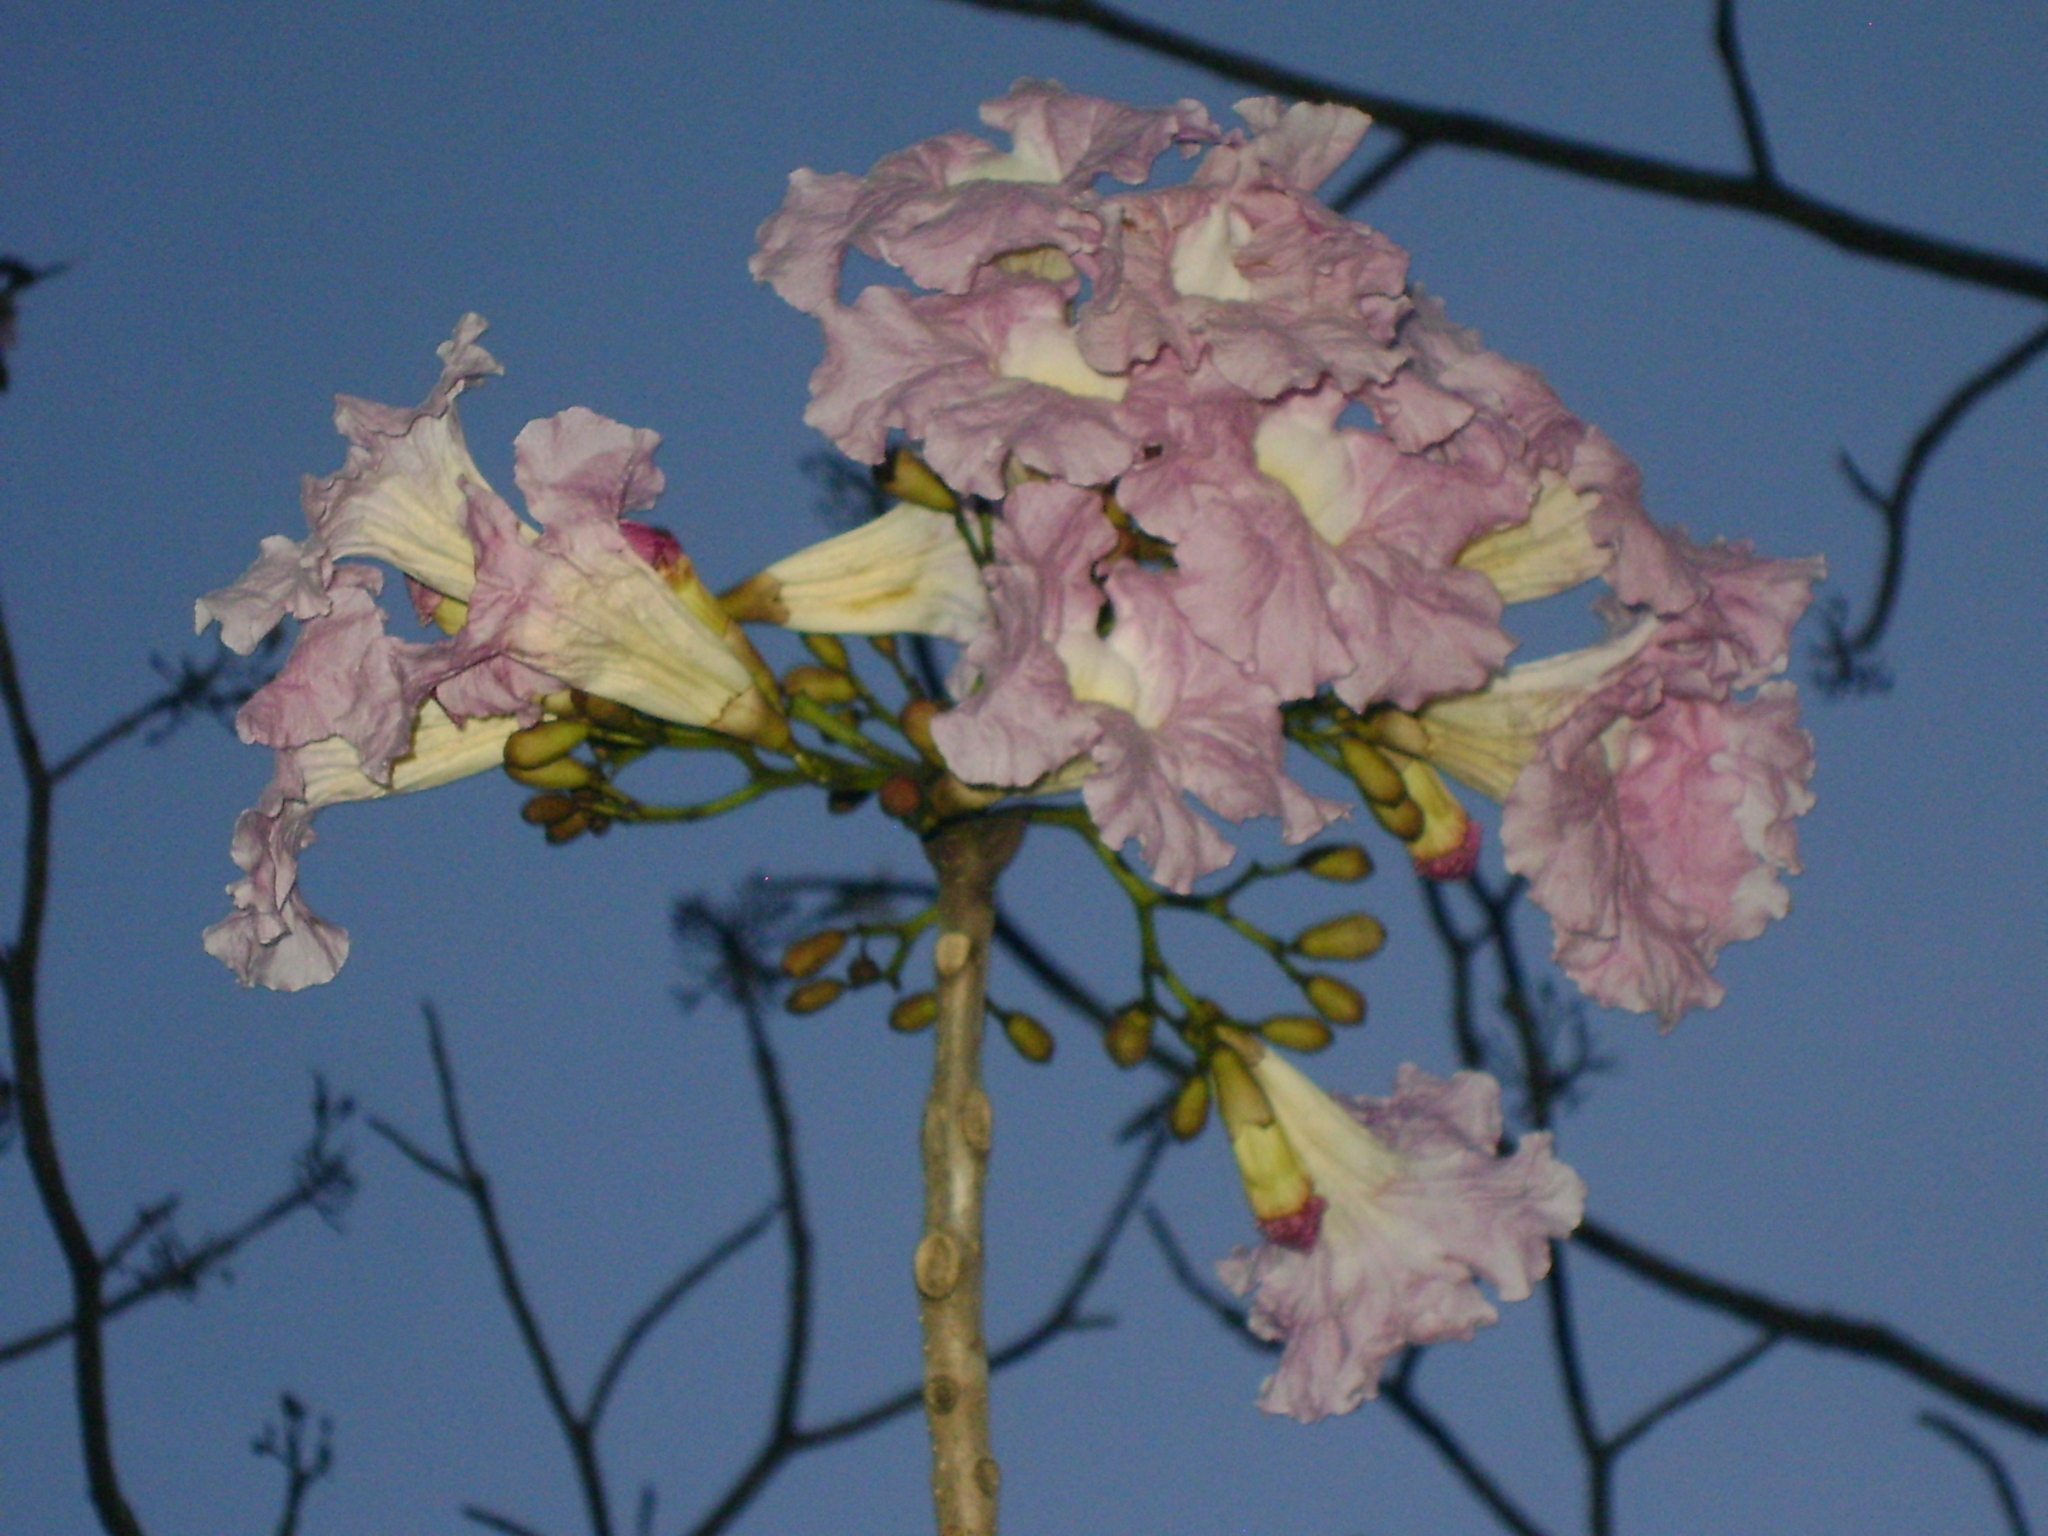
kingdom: Plantae
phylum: Tracheophyta
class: Magnoliopsida
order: Lamiales
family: Bignoniaceae
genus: Tabebuia
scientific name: Tabebuia rosea
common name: Pink poui
